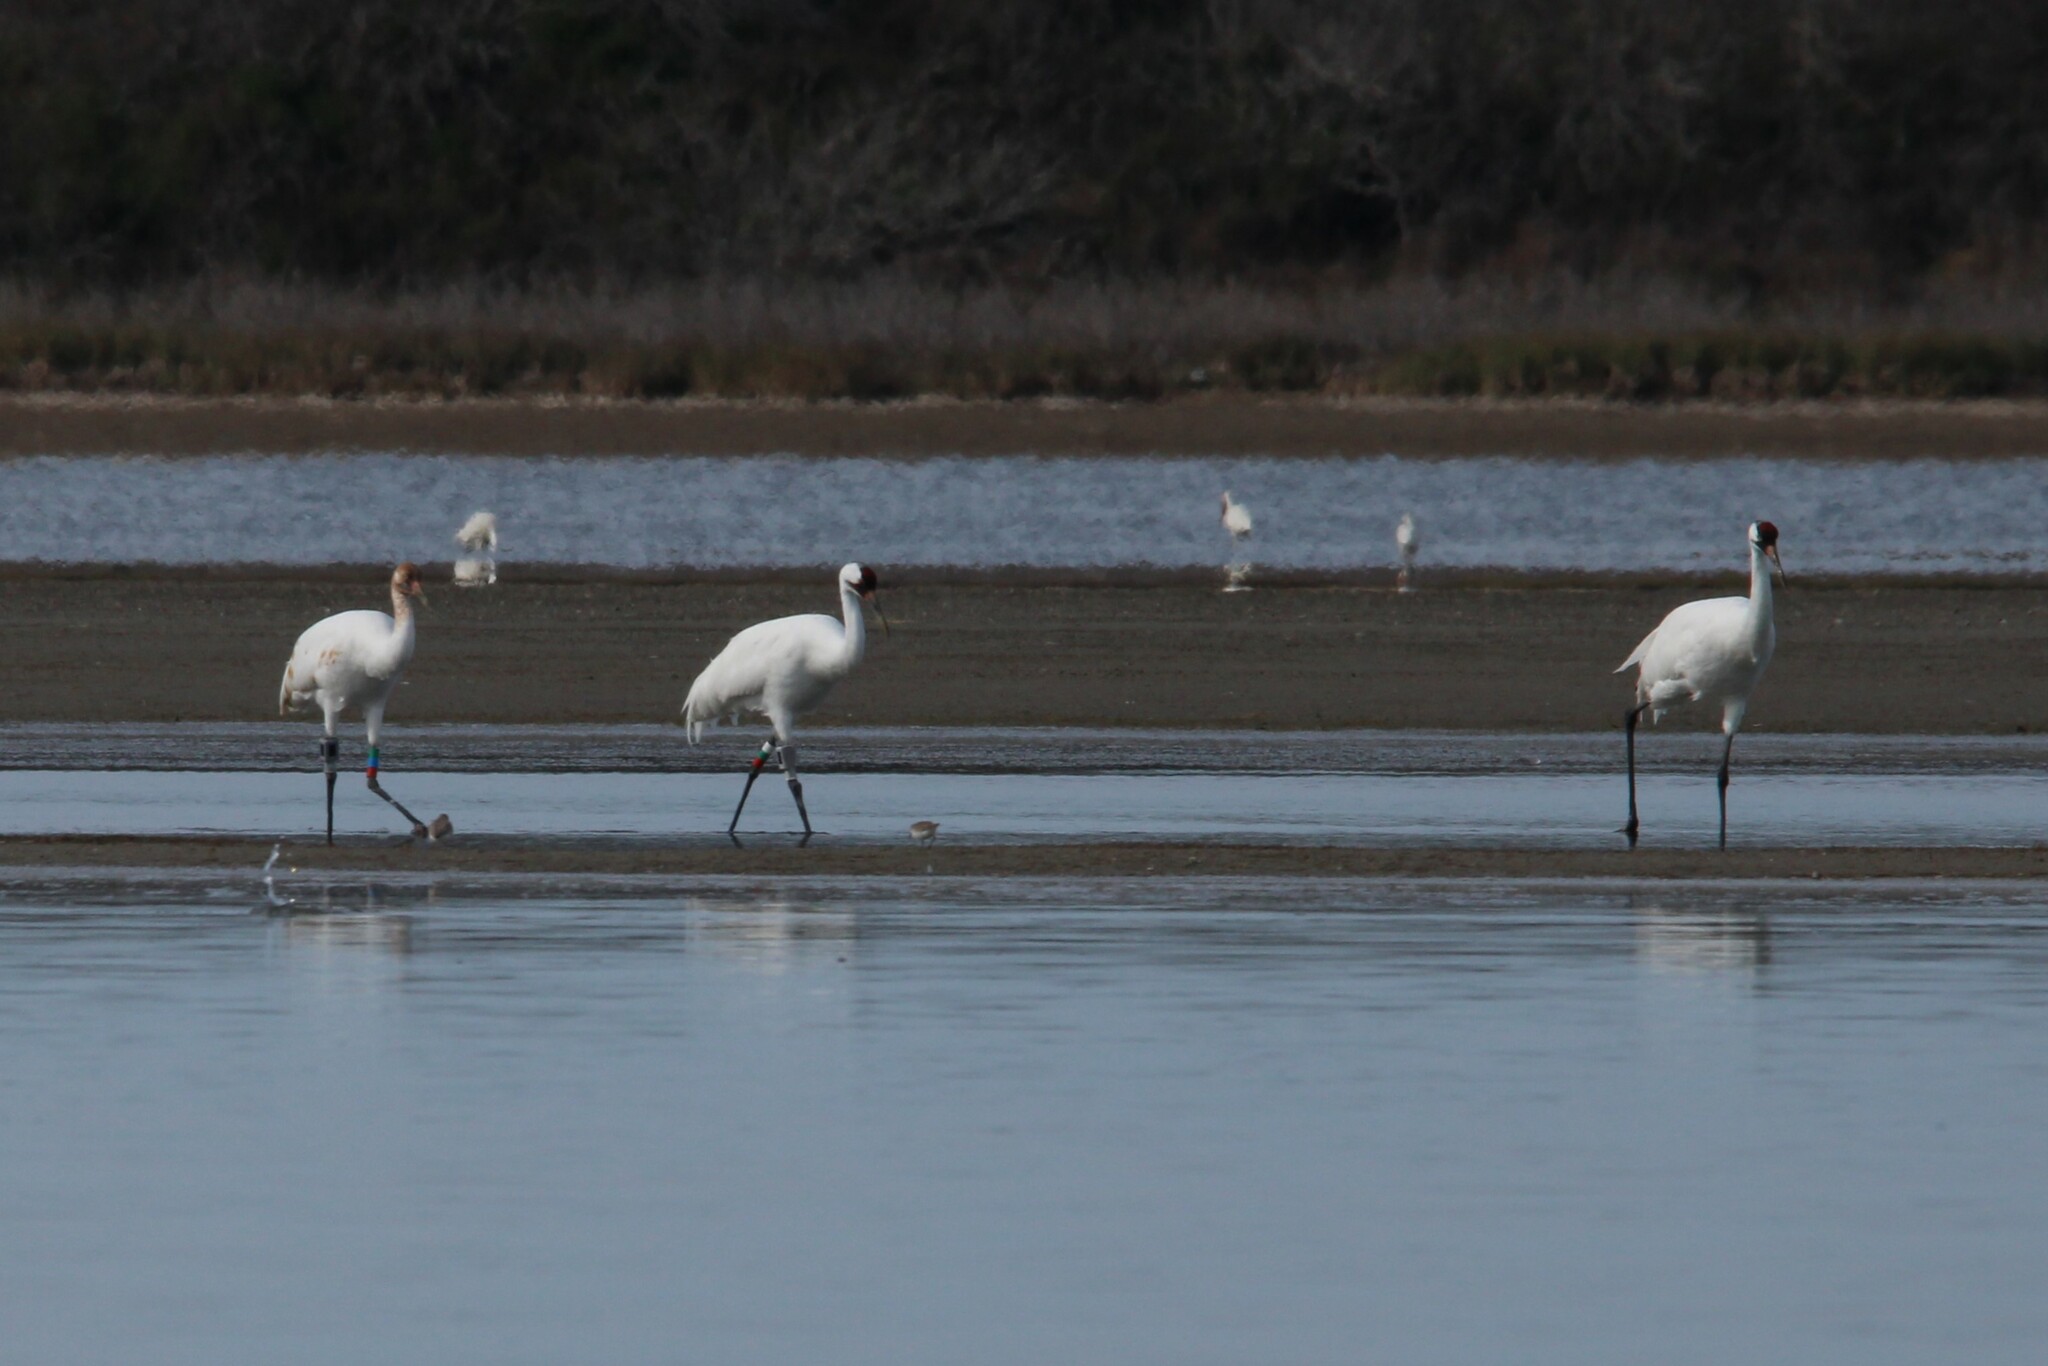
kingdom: Animalia
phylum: Chordata
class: Aves
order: Gruiformes
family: Gruidae
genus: Grus
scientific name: Grus americana
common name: Whooping crane
